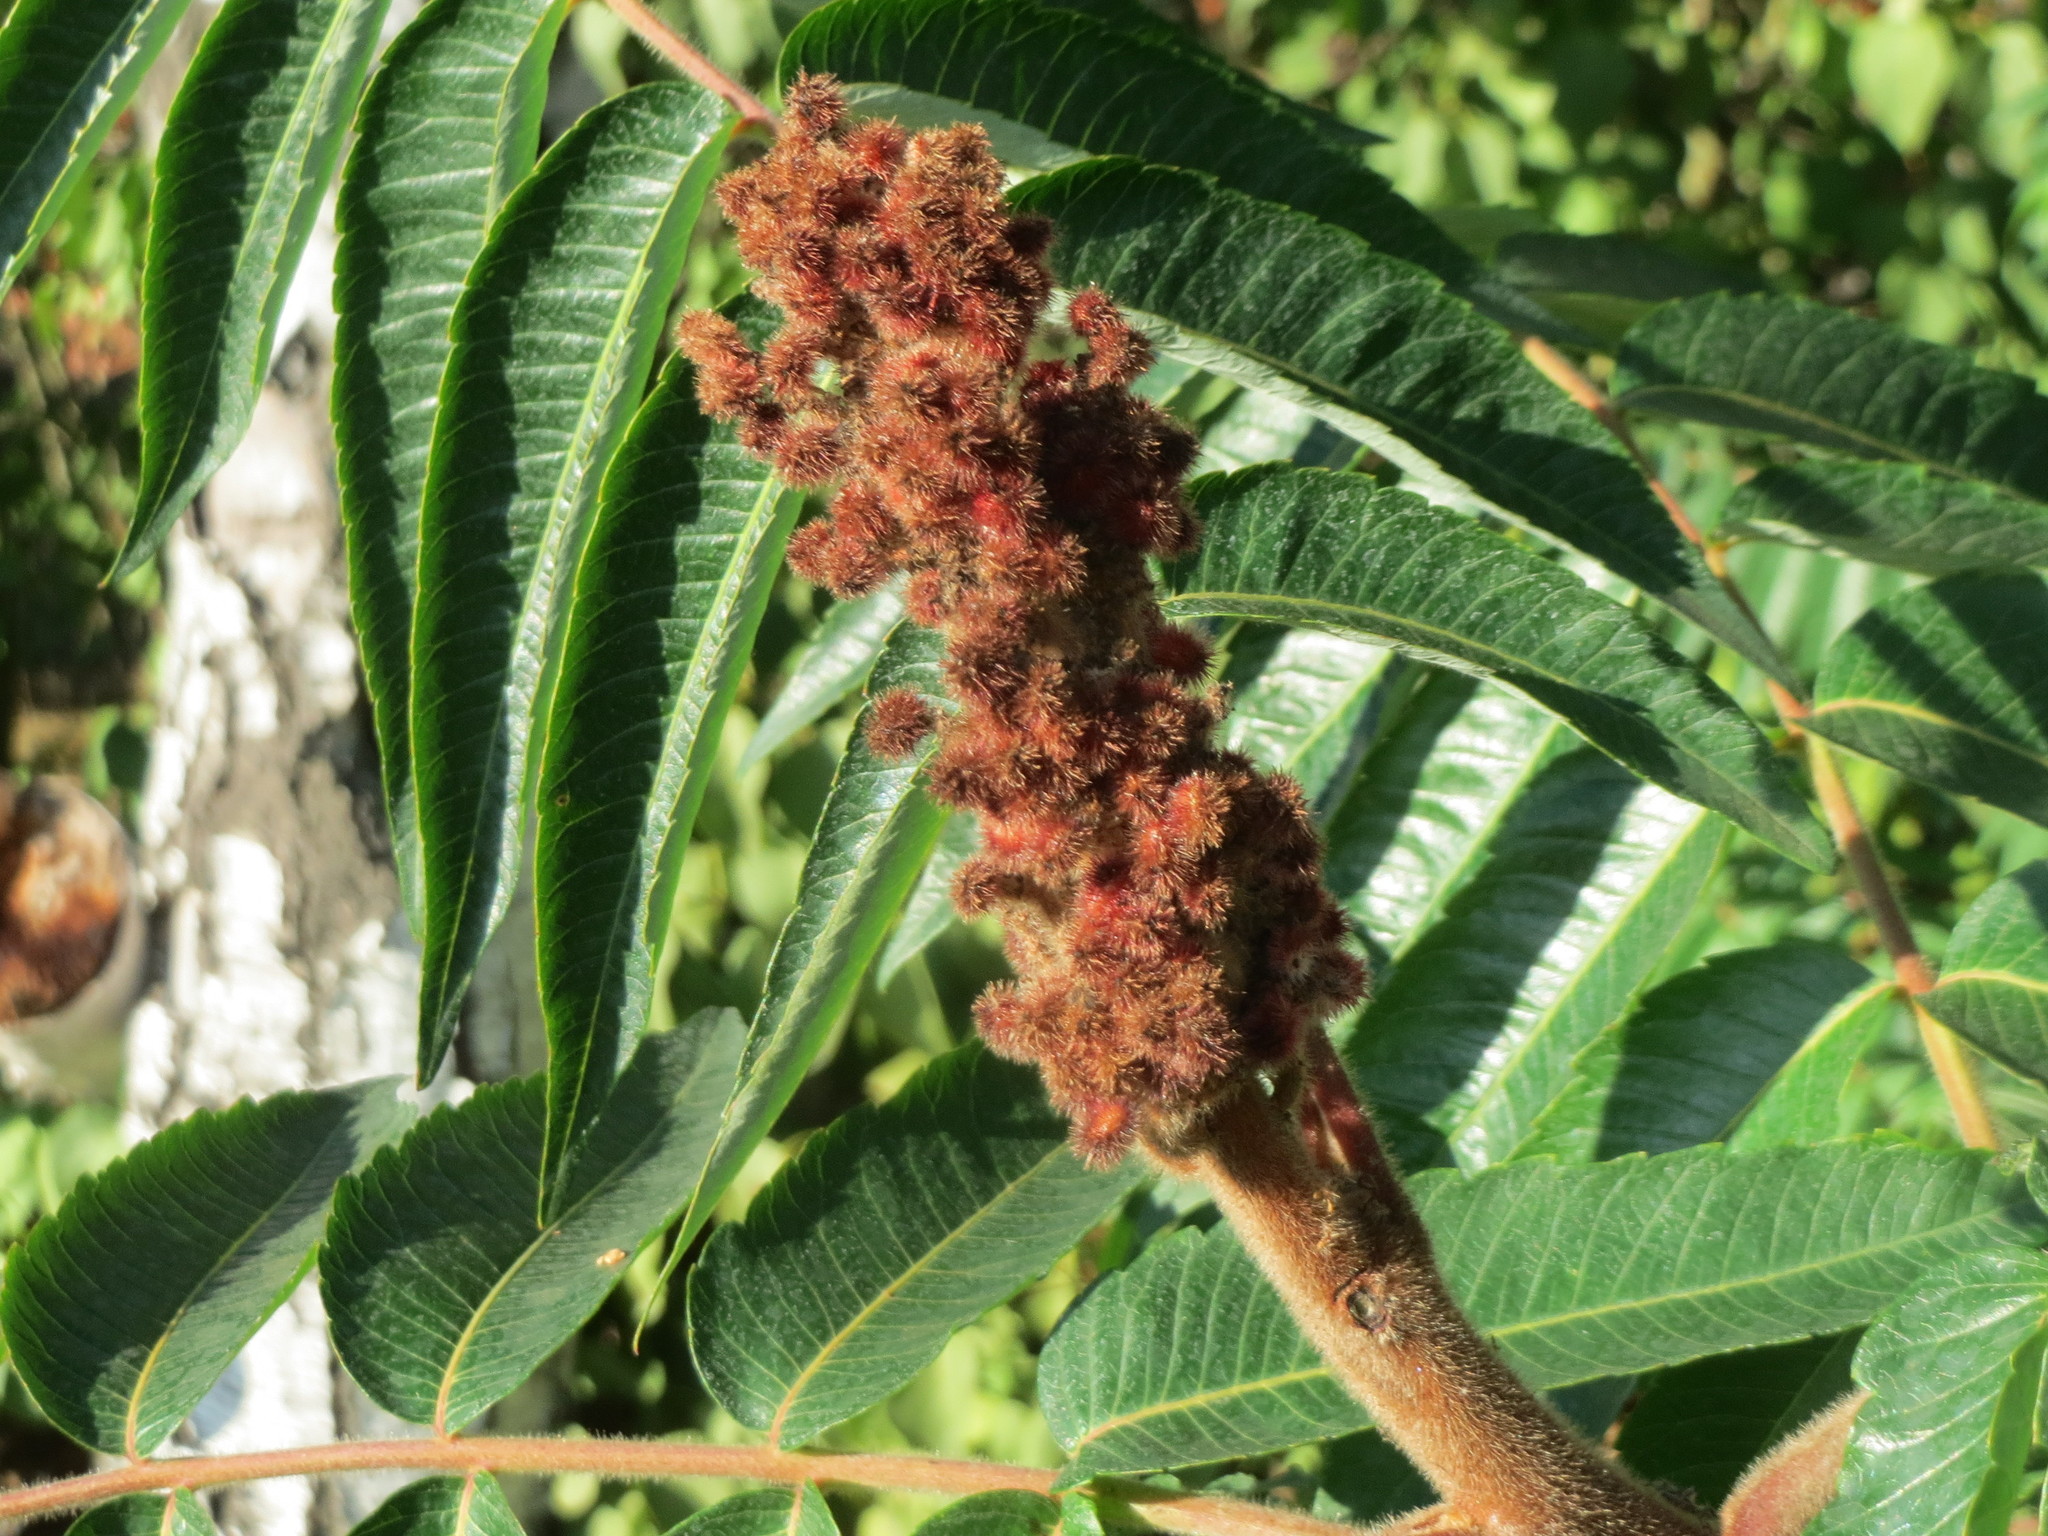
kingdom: Plantae
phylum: Tracheophyta
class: Magnoliopsida
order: Sapindales
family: Anacardiaceae
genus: Rhus
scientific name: Rhus typhina
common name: Staghorn sumac
